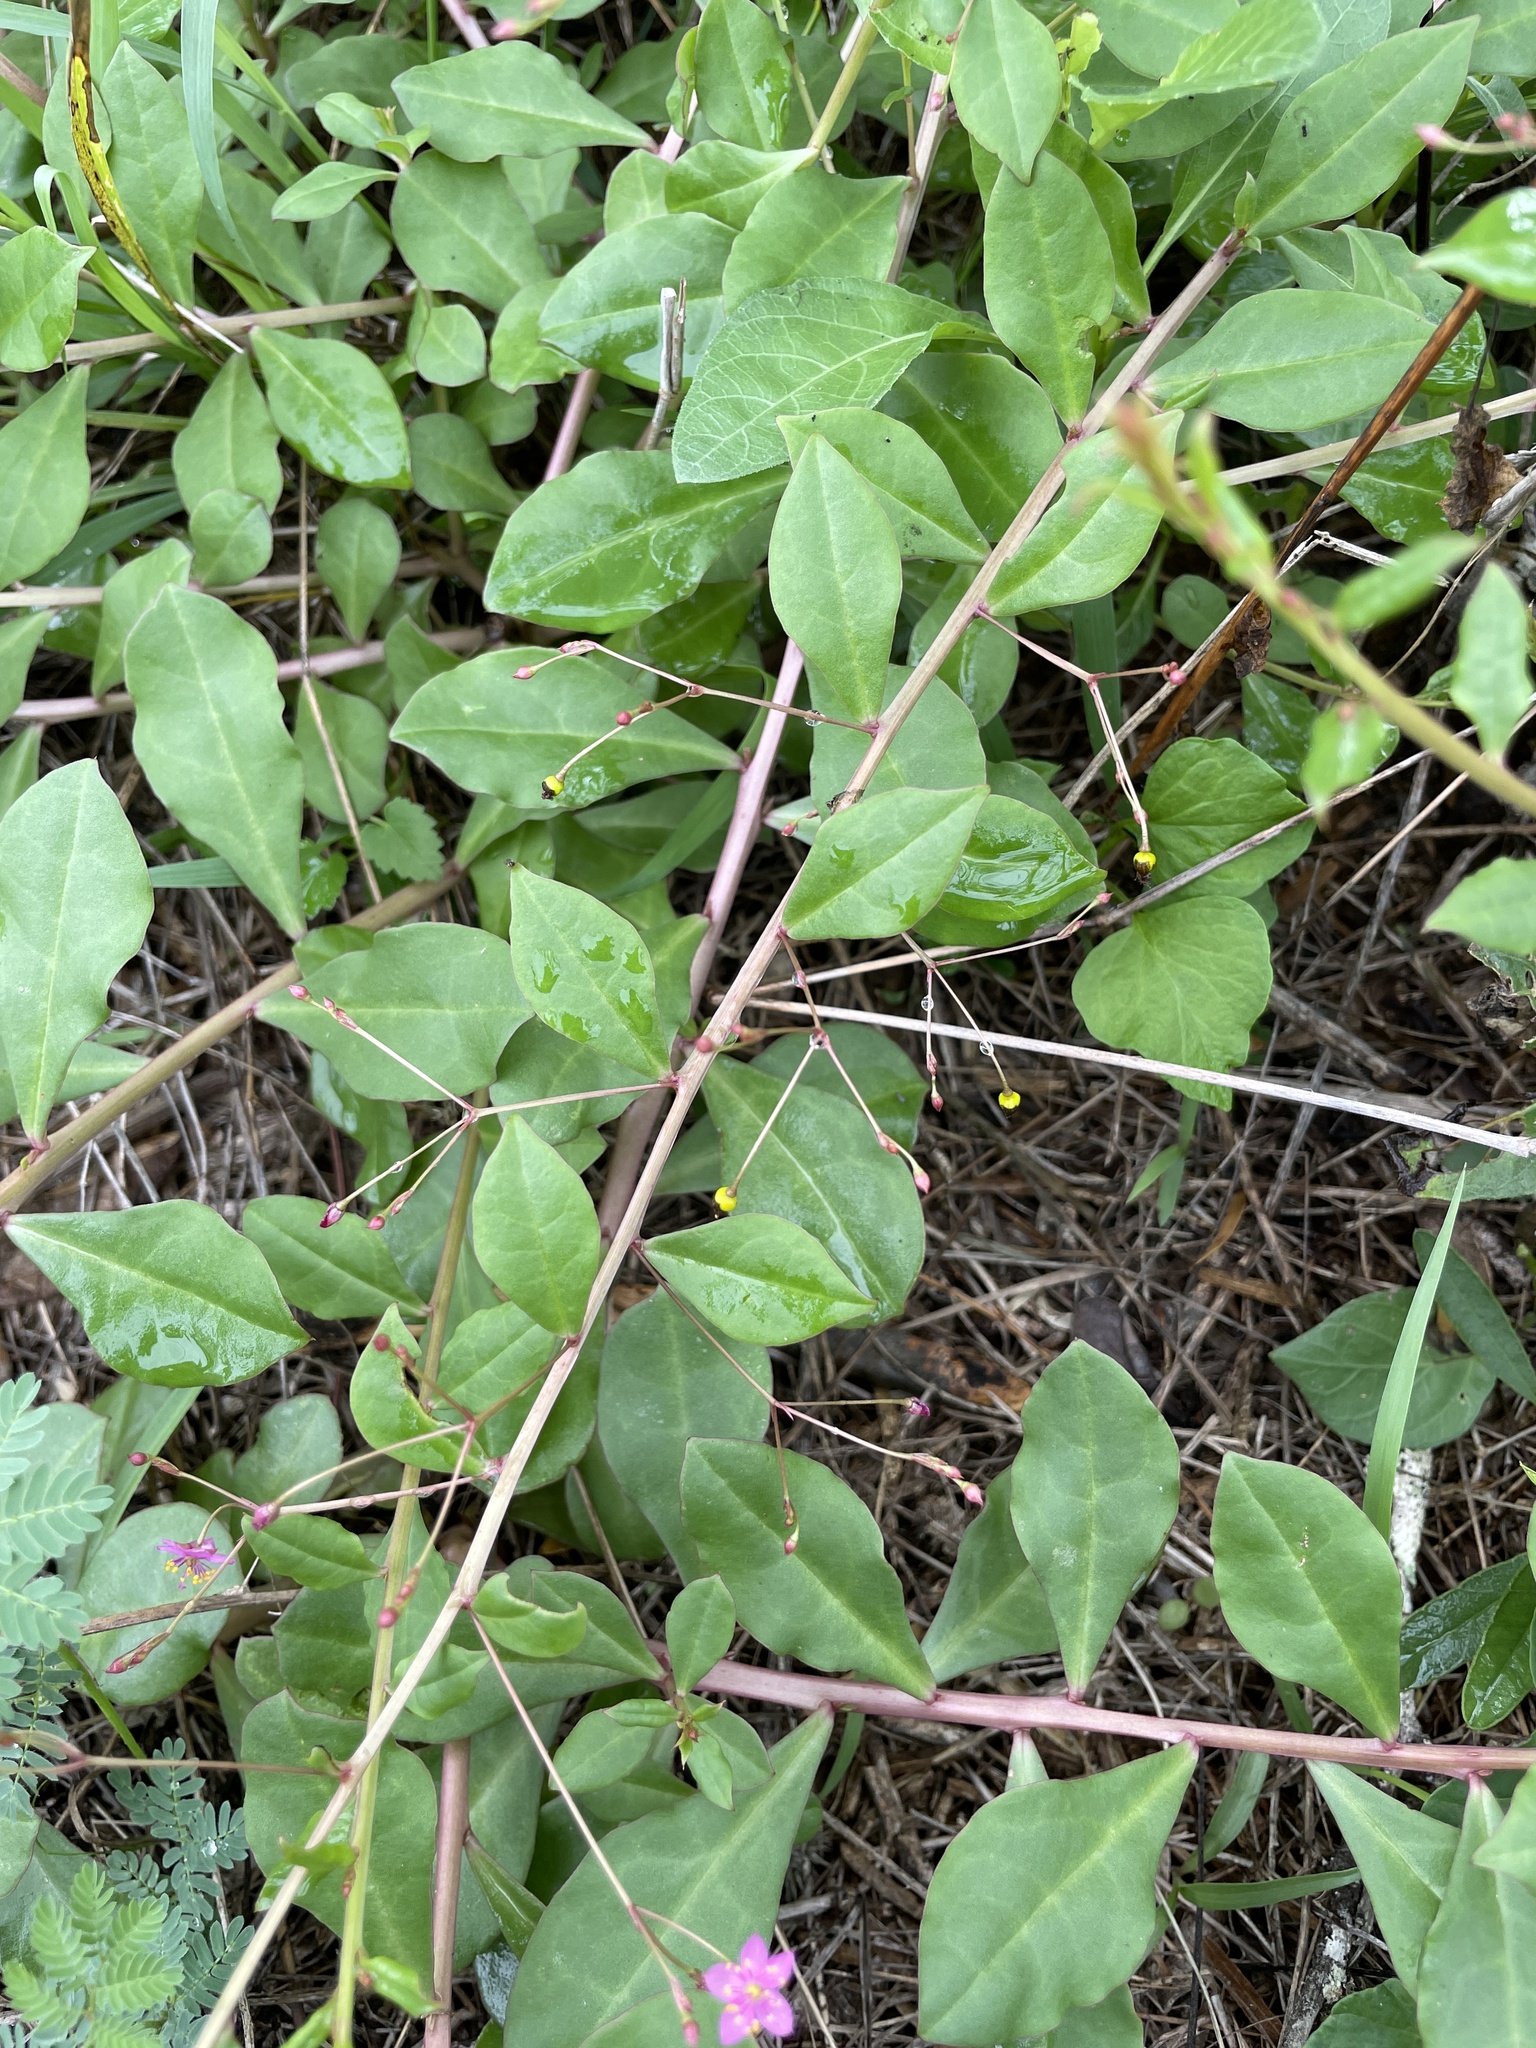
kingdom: Plantae
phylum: Tracheophyta
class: Magnoliopsida
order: Caryophyllales
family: Talinaceae
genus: Talinum
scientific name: Talinum paniculatum
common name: Jewels of opar
